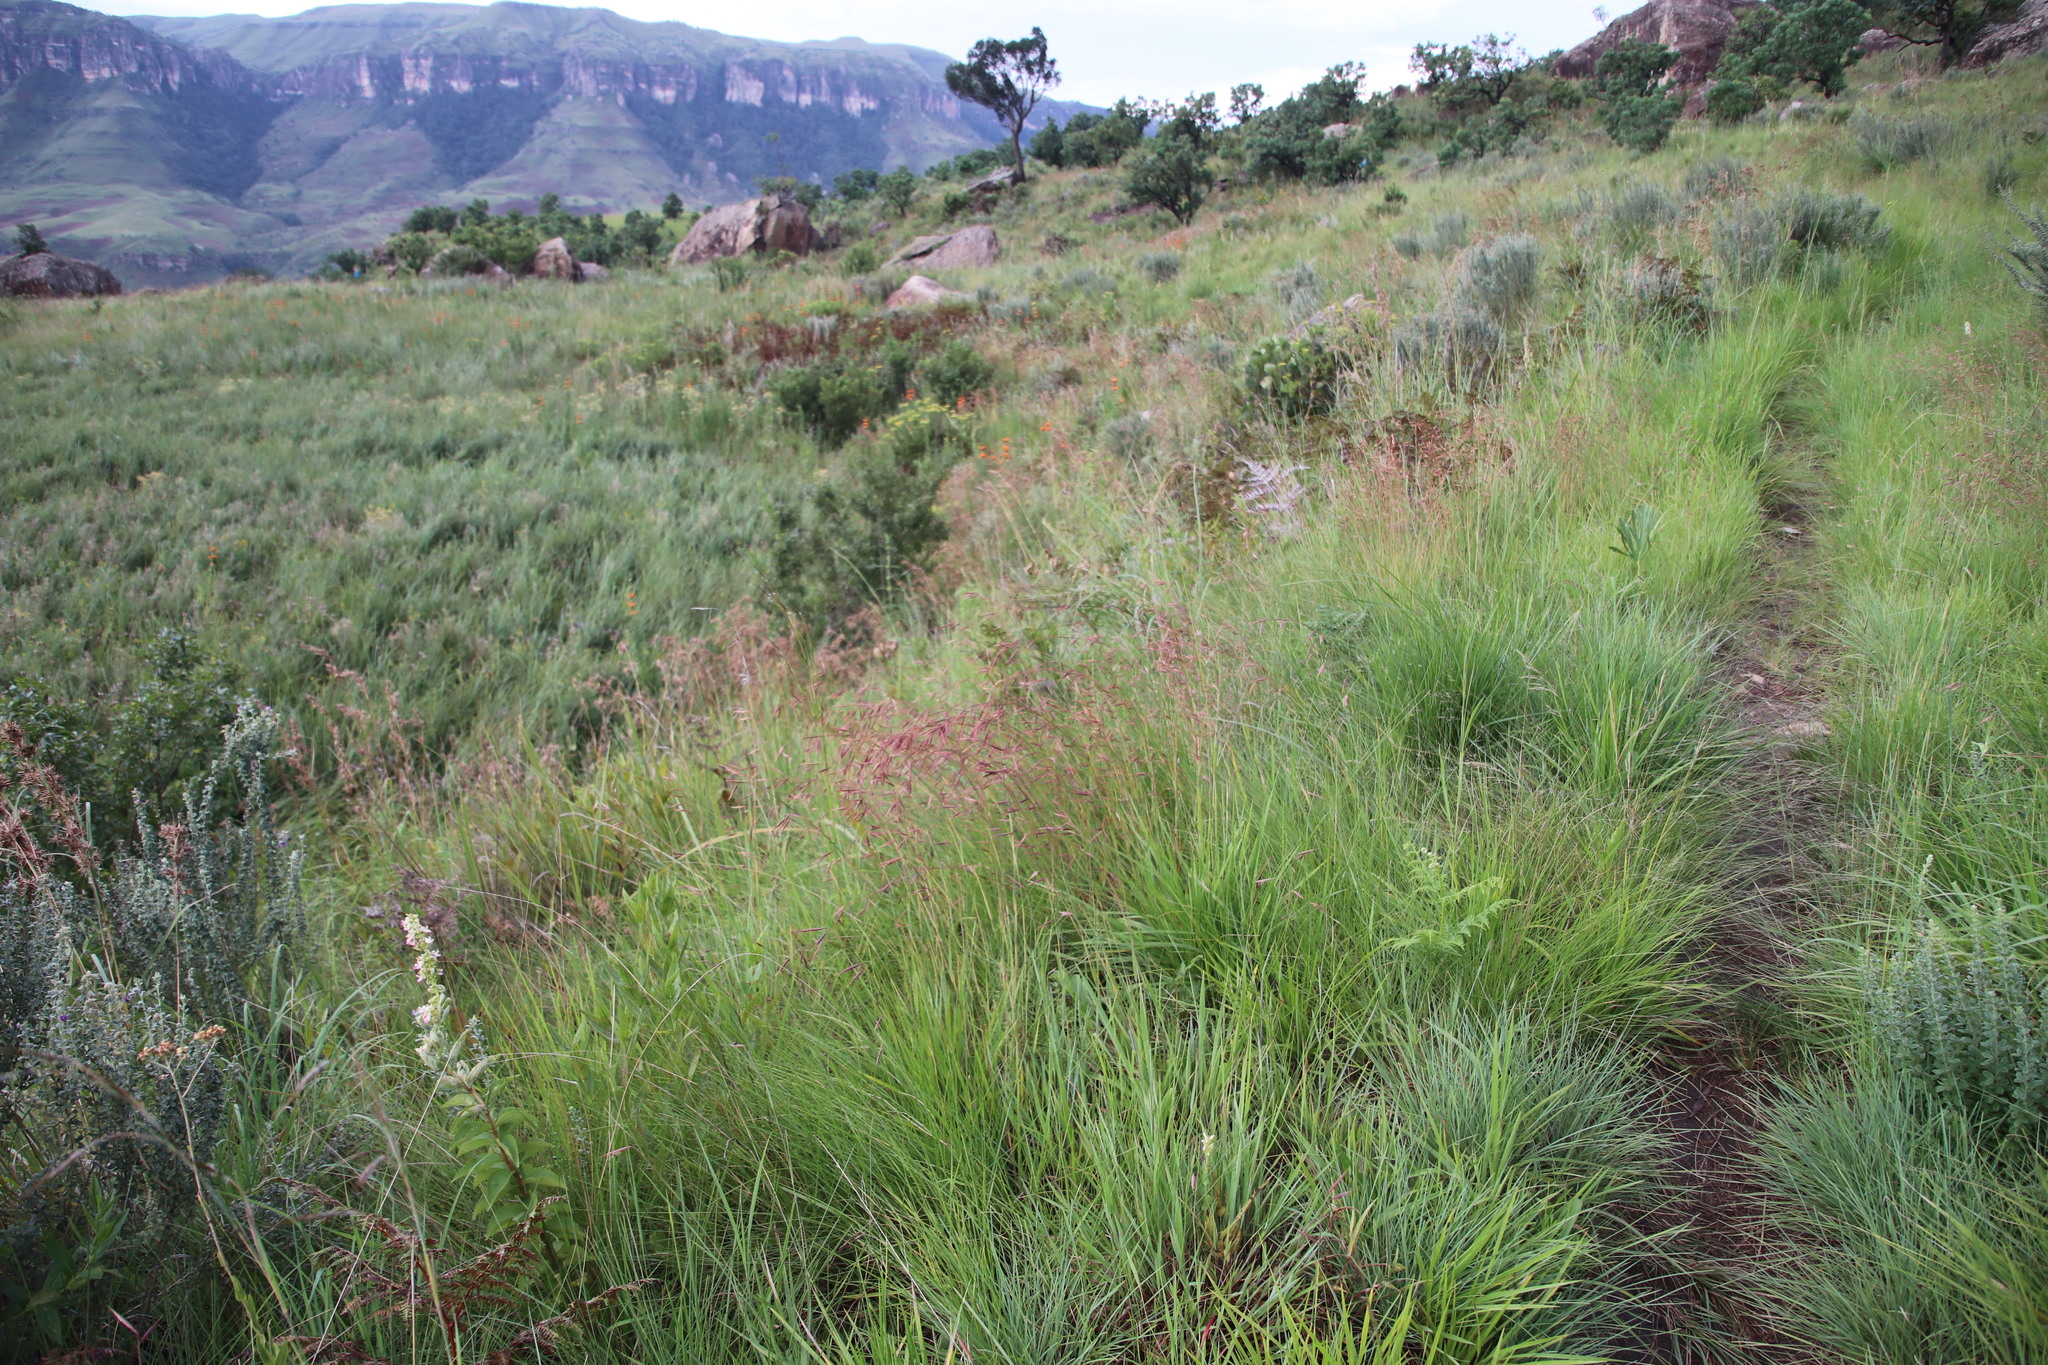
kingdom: Plantae
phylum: Tracheophyta
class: Liliopsida
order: Poales
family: Poaceae
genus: Monocymbium
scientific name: Monocymbium ceresiiforme
